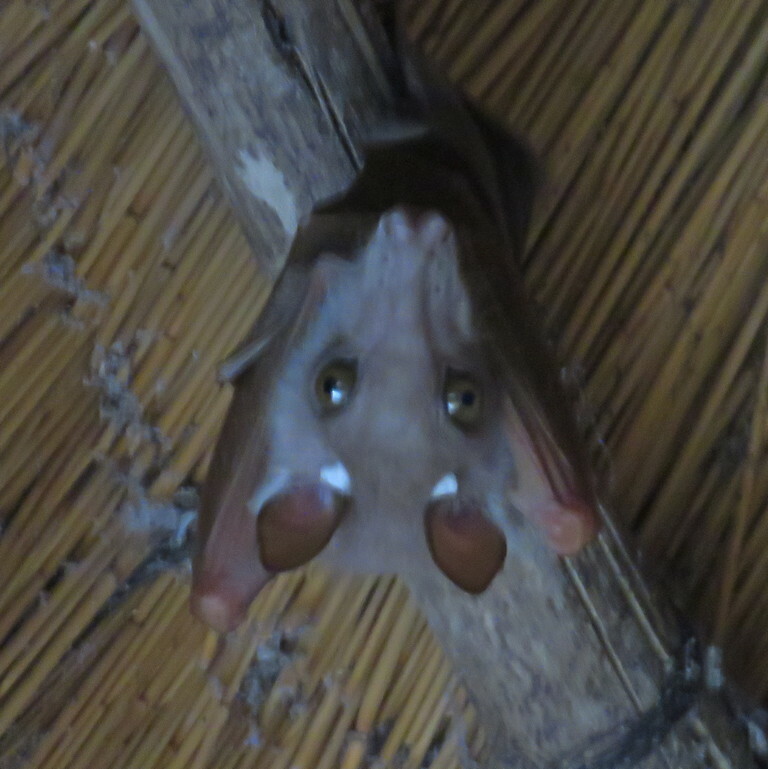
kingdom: Animalia
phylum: Chordata
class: Mammalia
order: Chiroptera
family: Pteropodidae
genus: Epomophorus
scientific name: Epomophorus crypturus
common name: Smaller epauletted fruit bat
